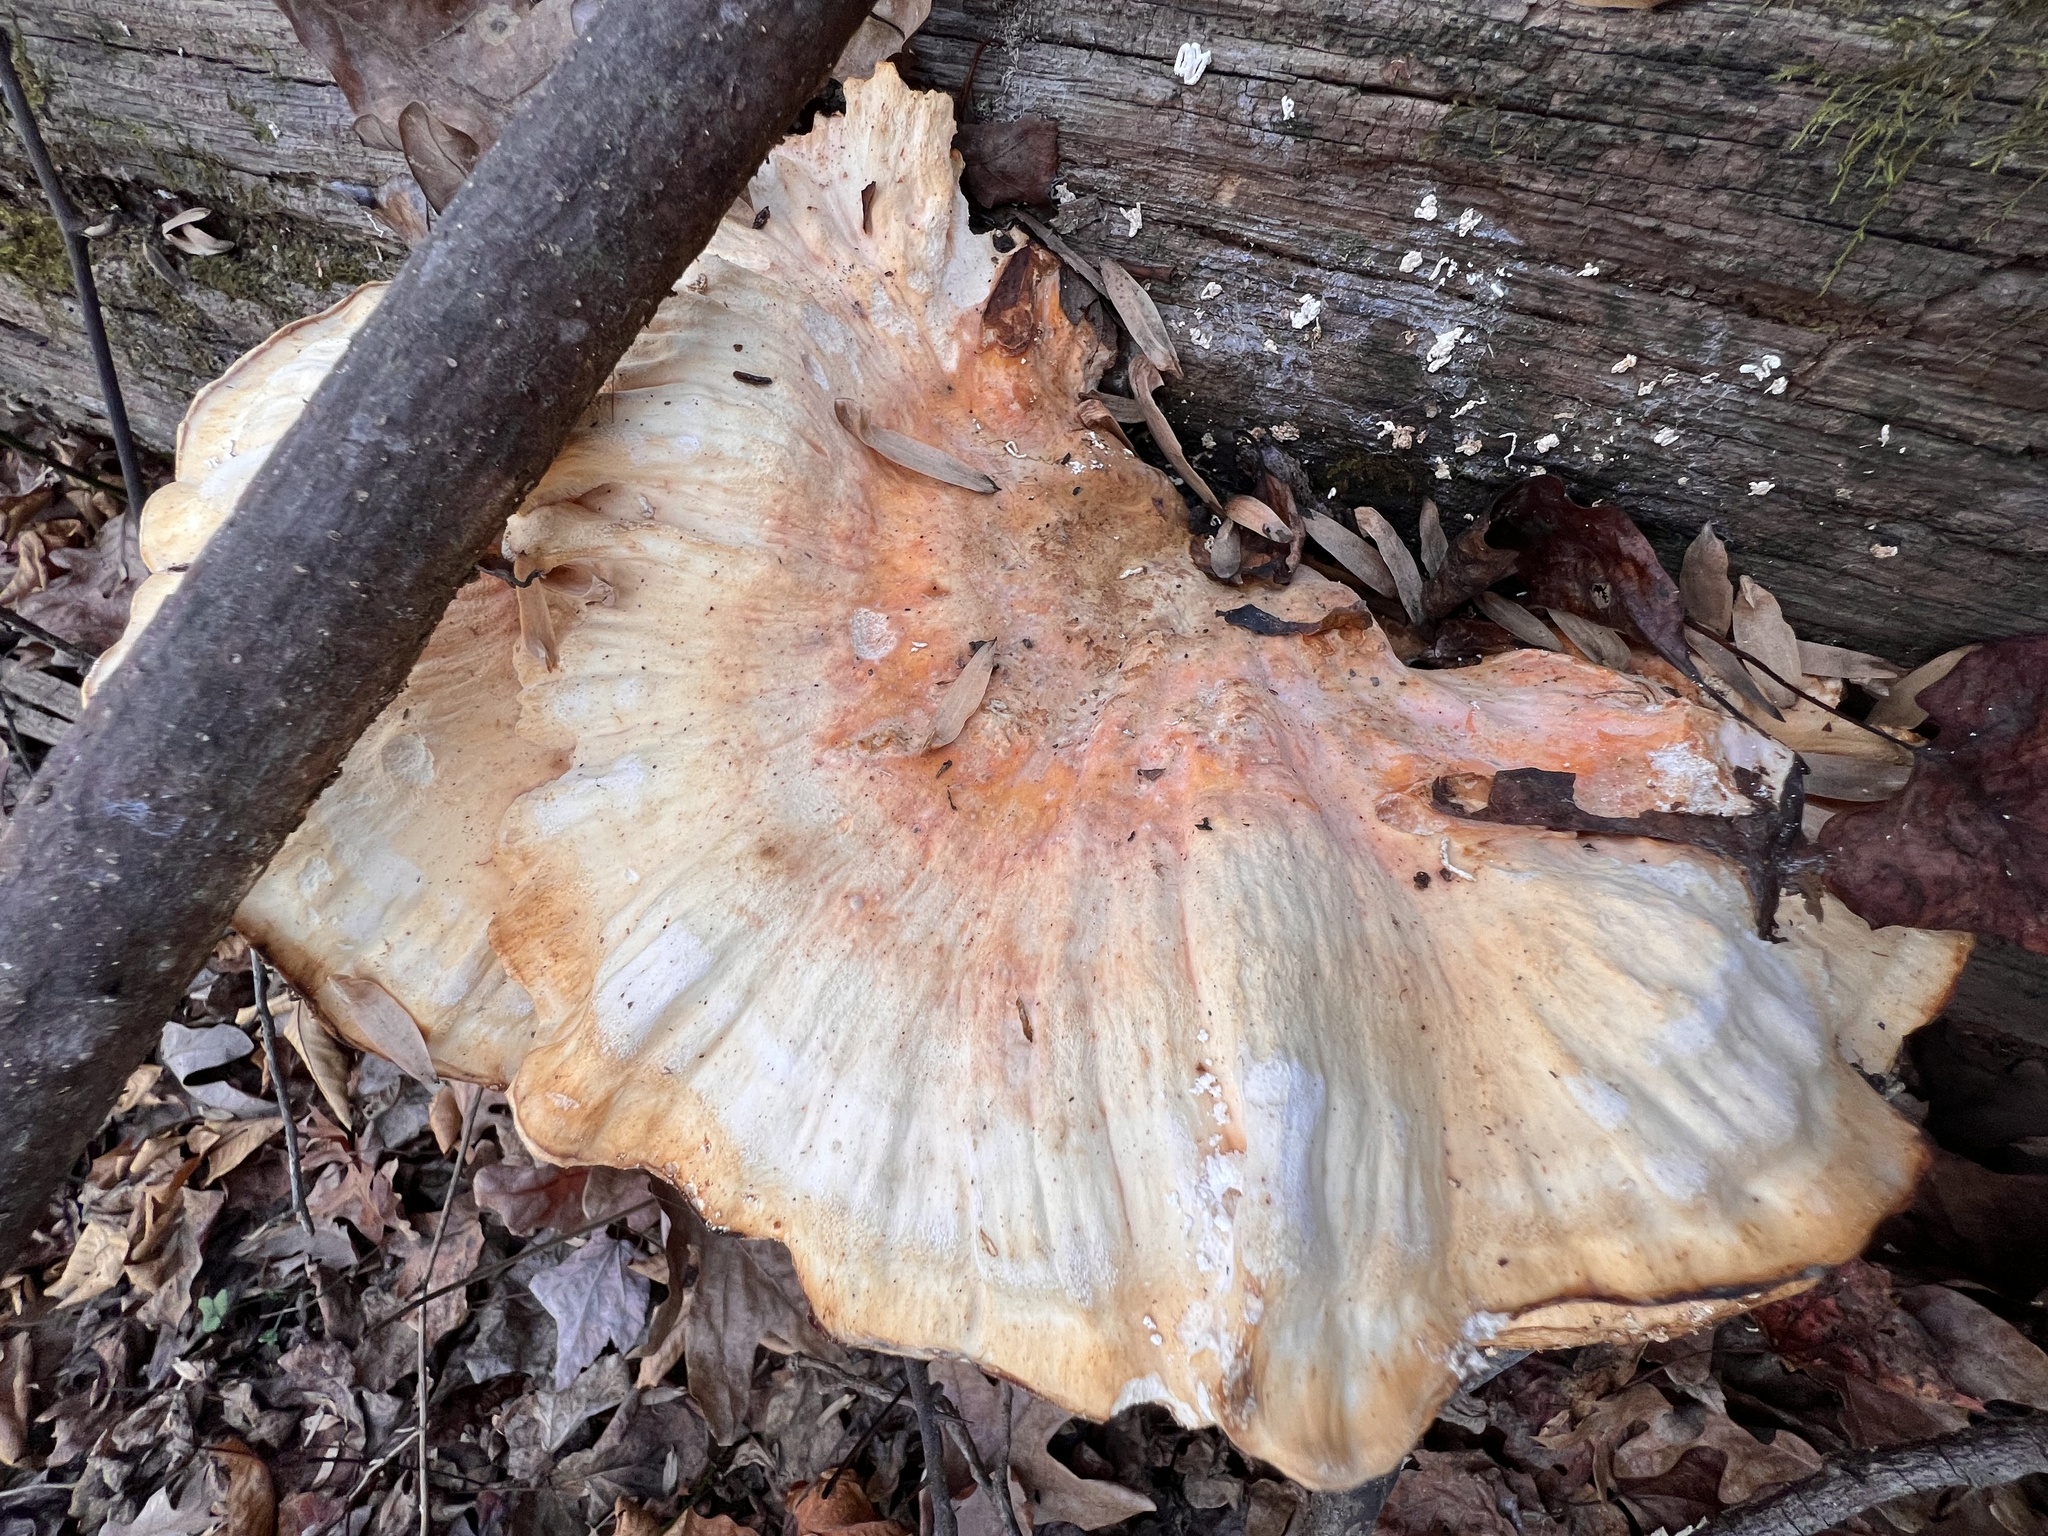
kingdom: Fungi
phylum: Basidiomycota
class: Agaricomycetes
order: Polyporales
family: Laetiporaceae
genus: Laetiporus
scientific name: Laetiporus sulphureus
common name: Chicken of the woods
